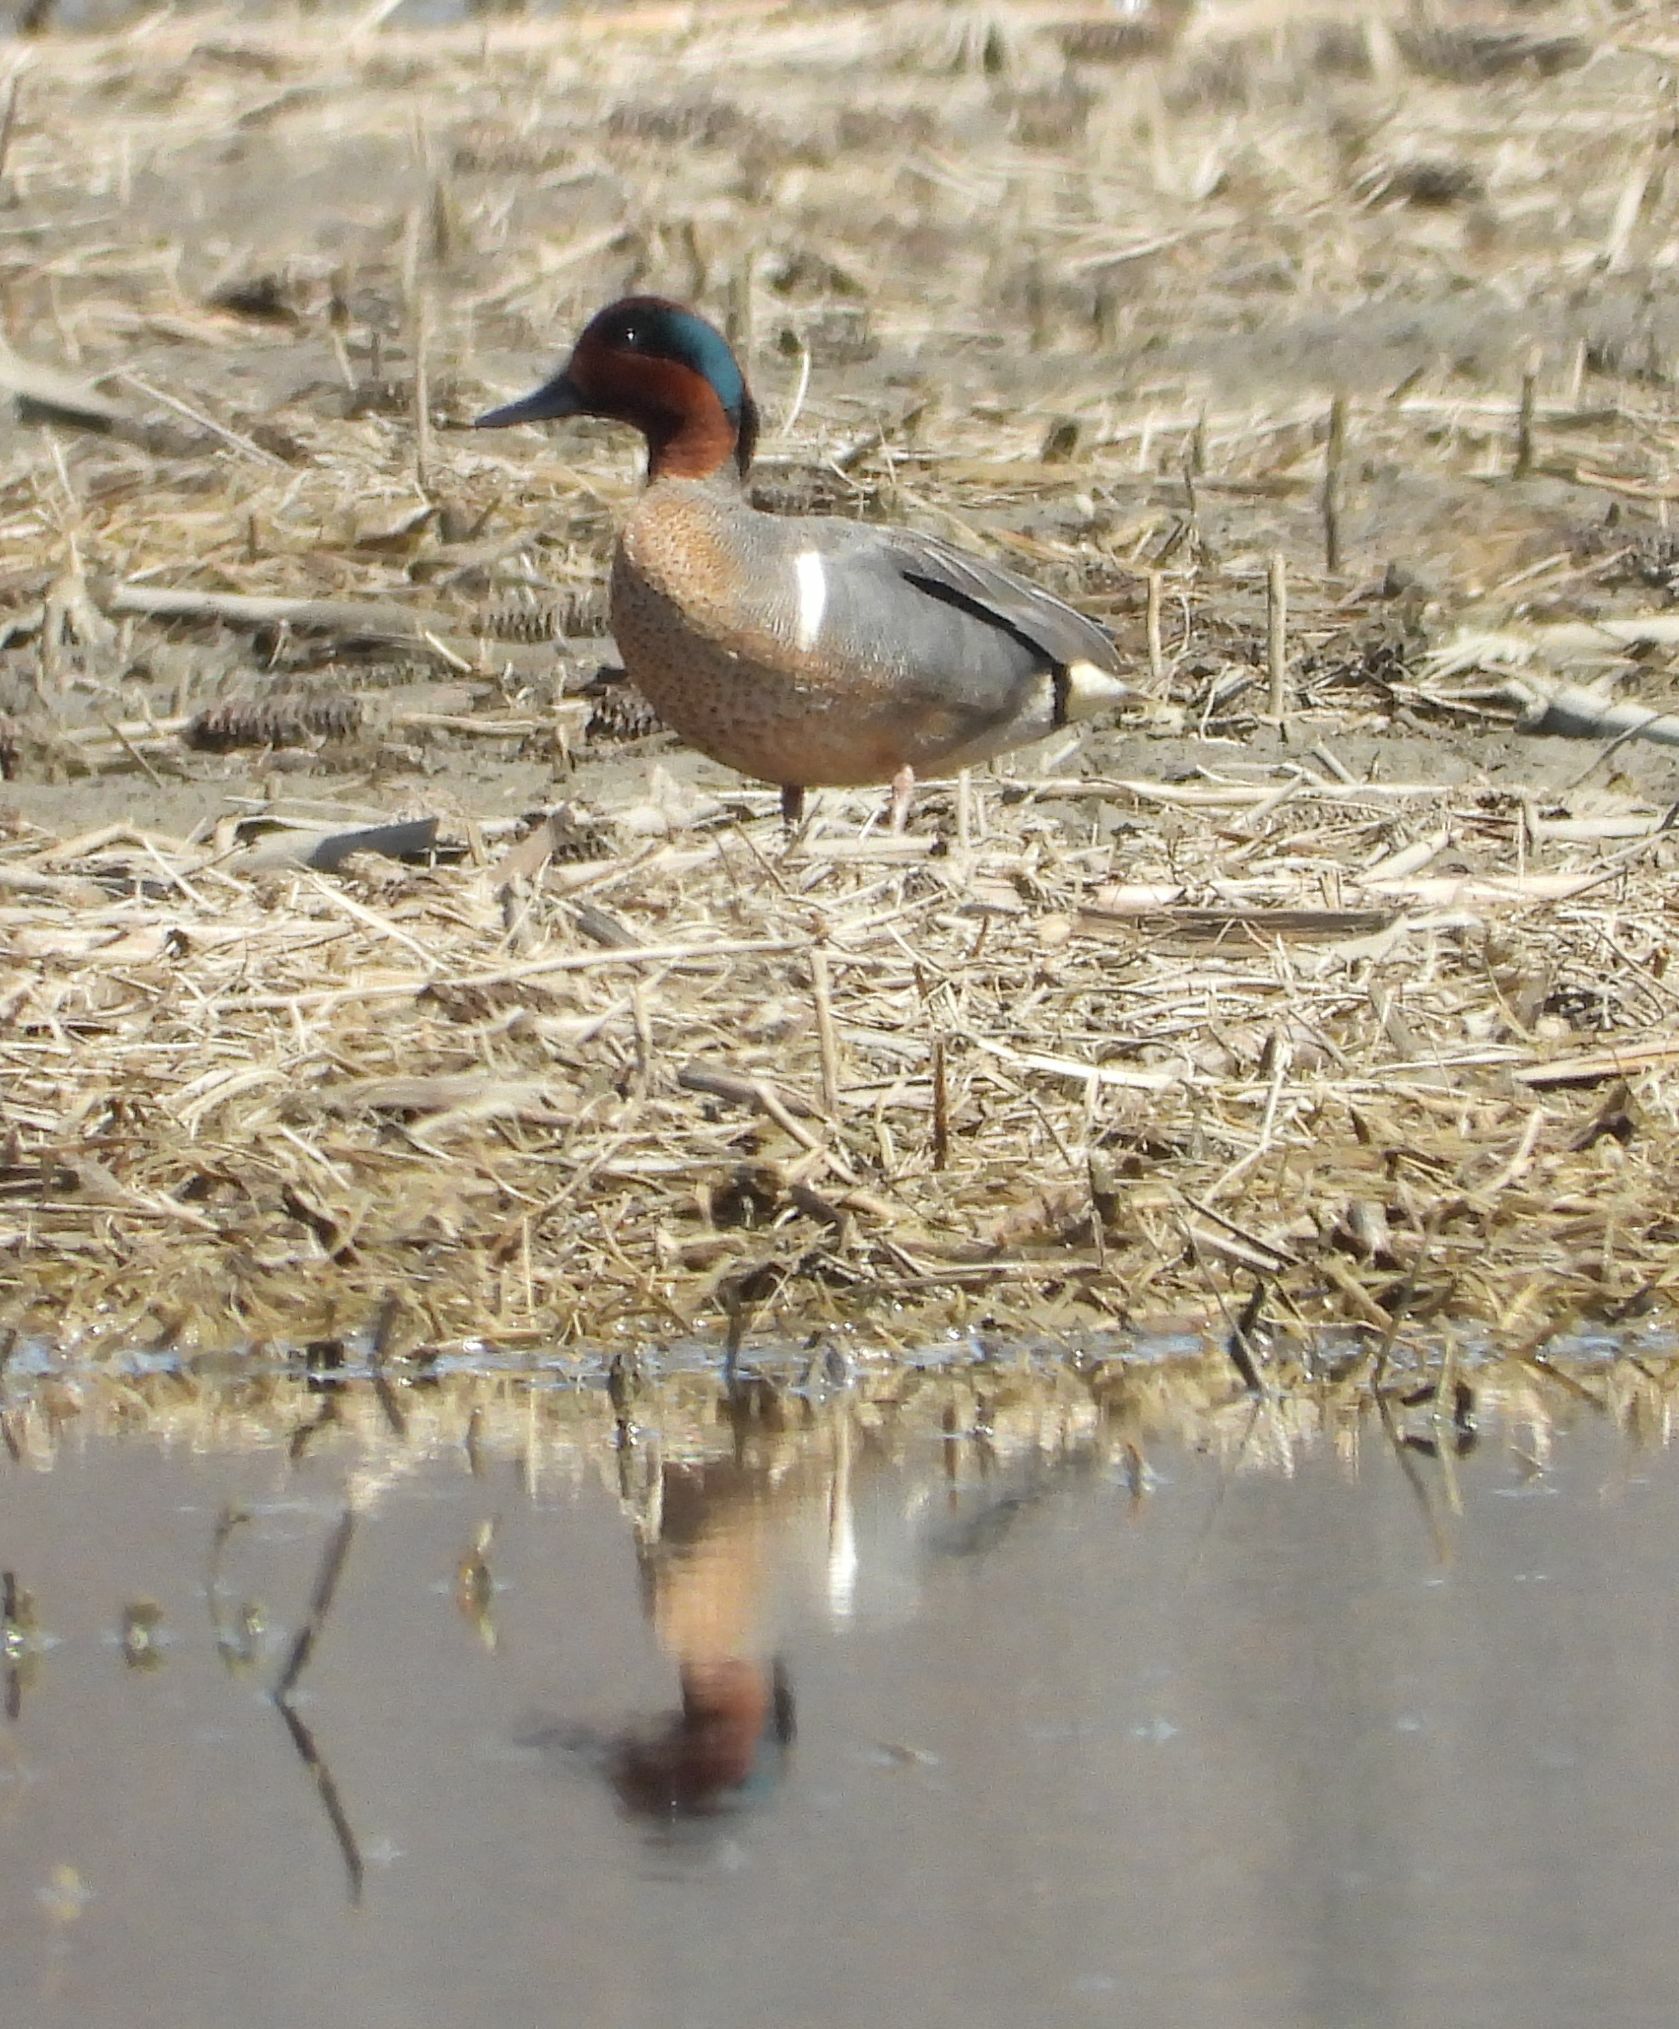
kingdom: Animalia
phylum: Chordata
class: Aves
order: Anseriformes
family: Anatidae
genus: Anas
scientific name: Anas crecca
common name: Eurasian teal
